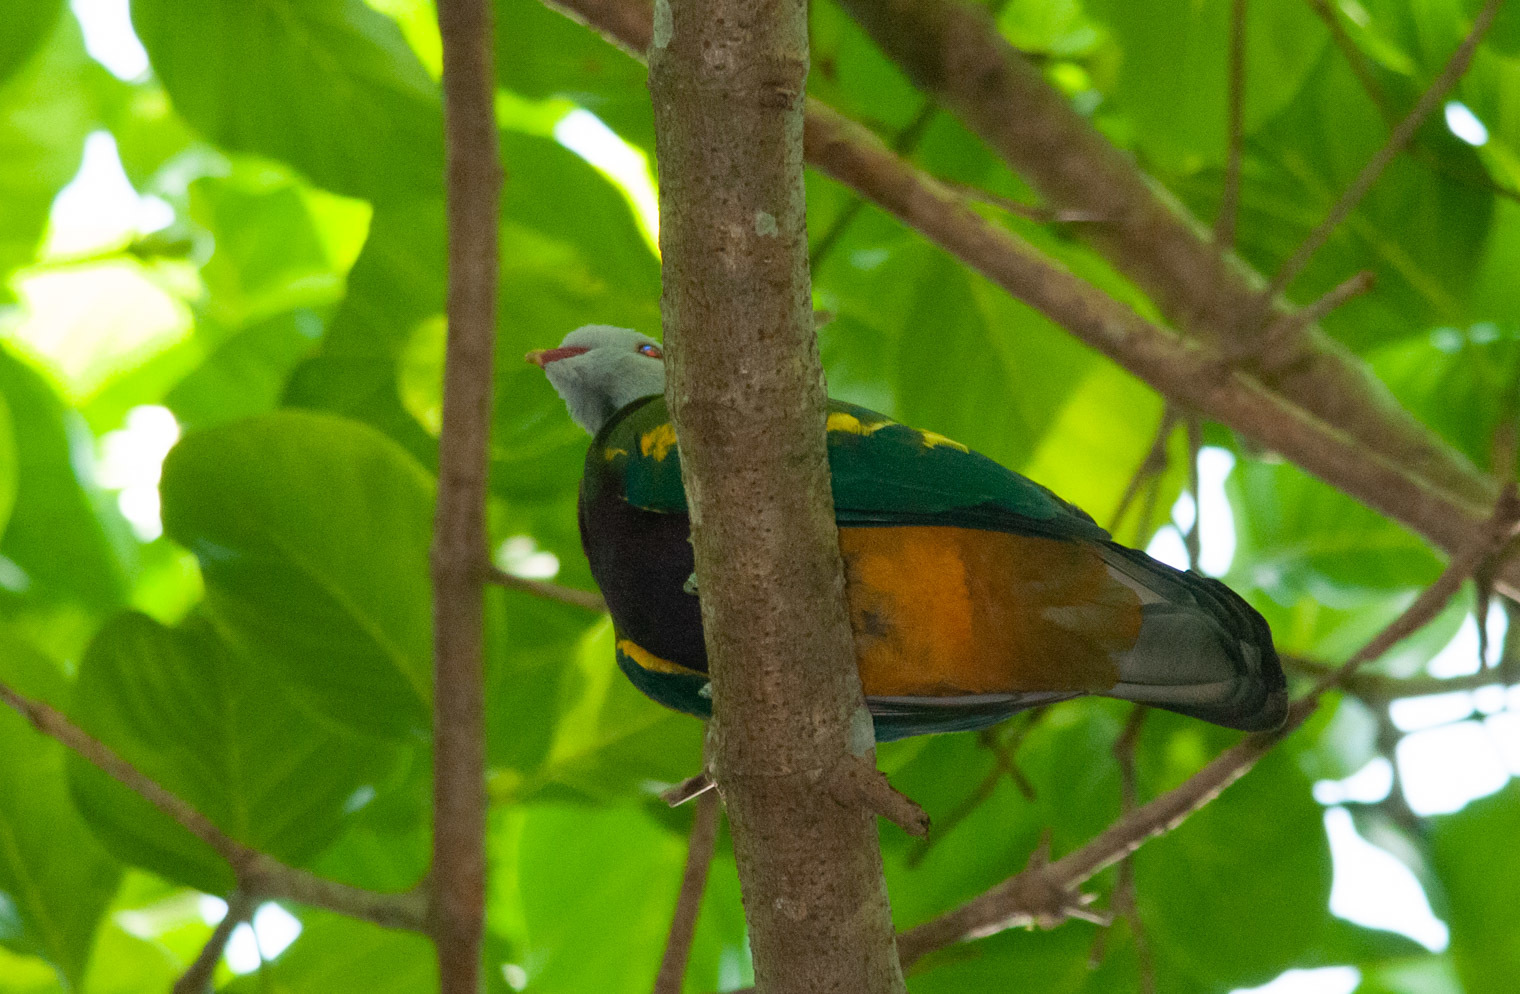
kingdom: Animalia
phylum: Chordata
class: Aves
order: Columbiformes
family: Columbidae
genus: Ptilinopus
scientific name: Ptilinopus magnificus
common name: Wompoo fruit dove
